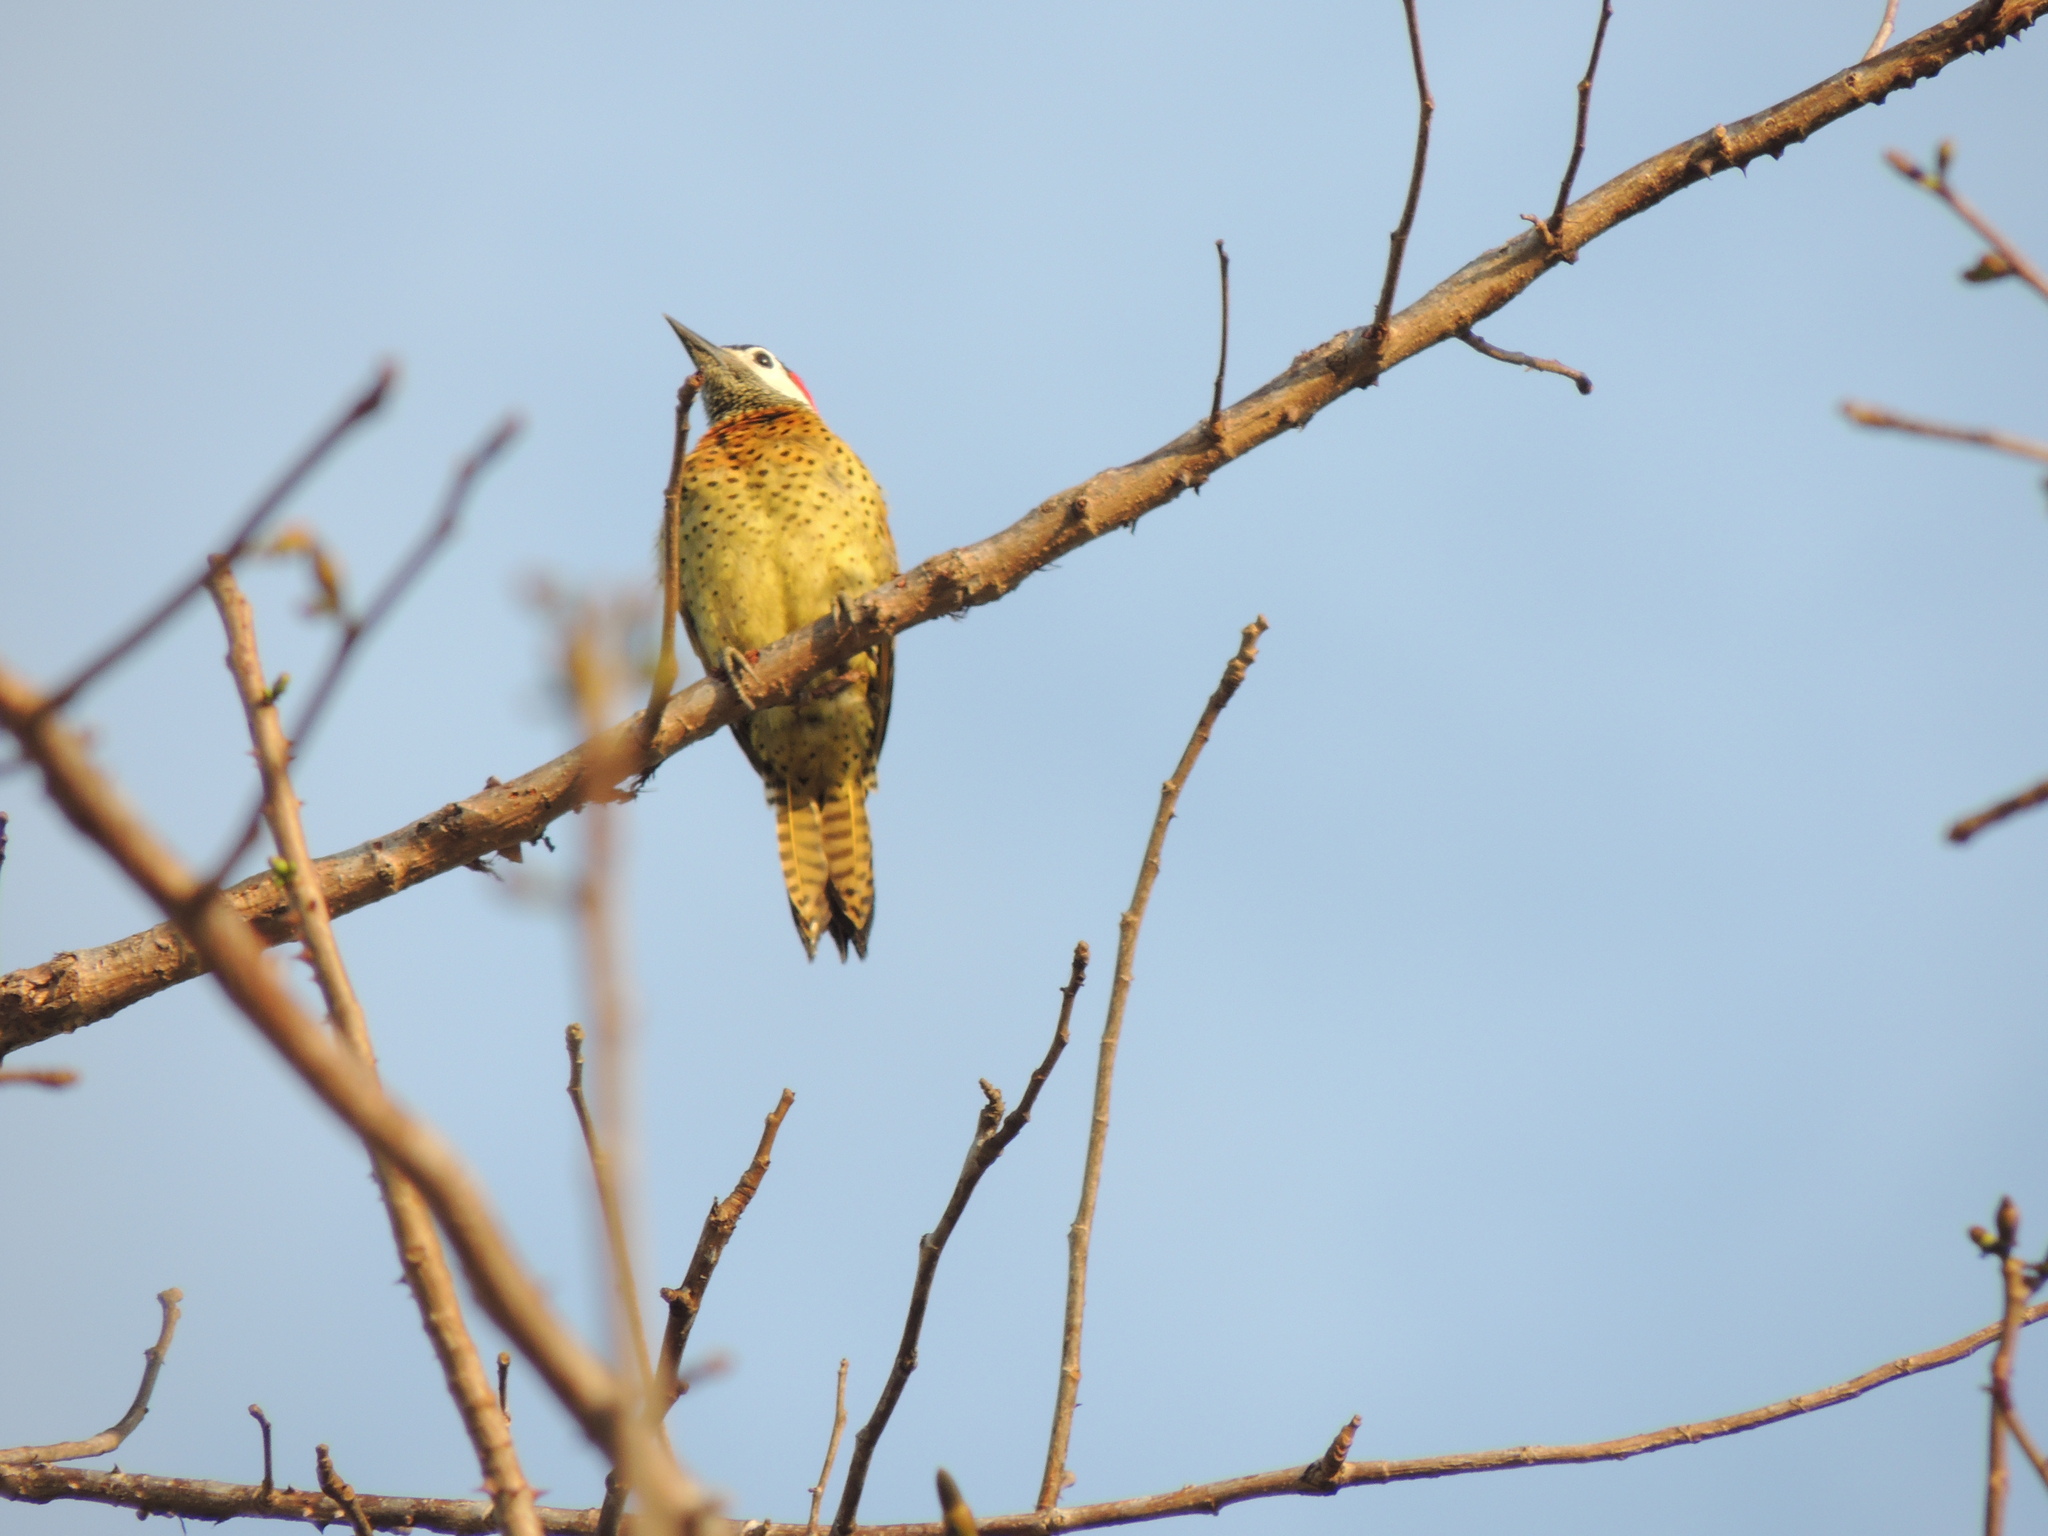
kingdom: Animalia
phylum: Chordata
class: Aves
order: Piciformes
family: Picidae
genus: Colaptes
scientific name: Colaptes punctigula
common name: Spot-breasted woodpecker
